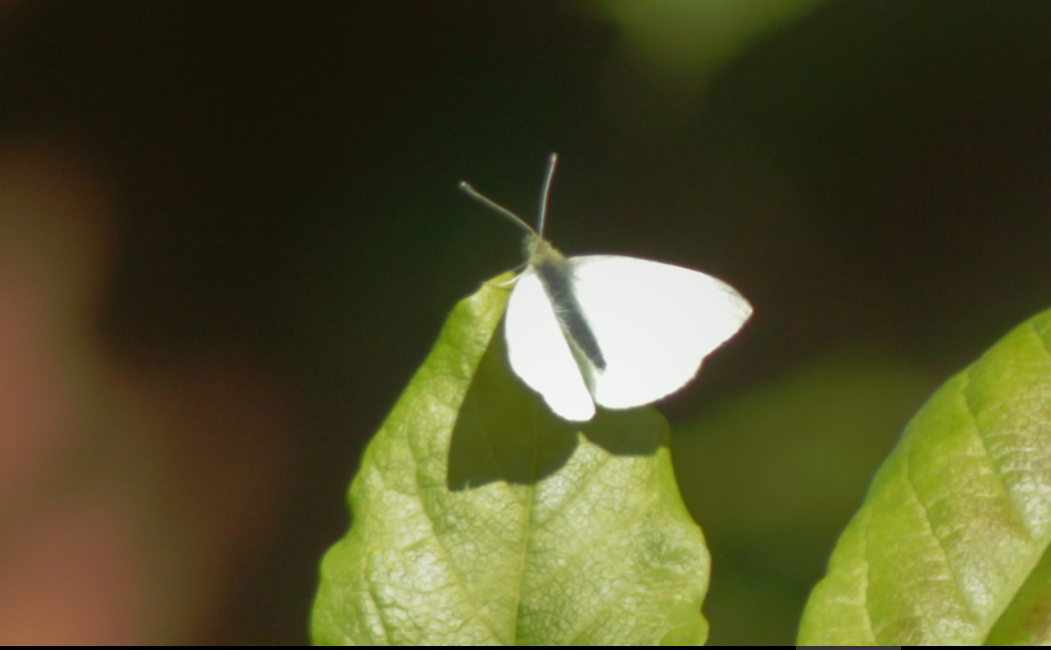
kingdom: Animalia
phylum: Arthropoda
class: Insecta
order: Lepidoptera
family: Pieridae
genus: Pieris
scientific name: Pieris rapae
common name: Small white
